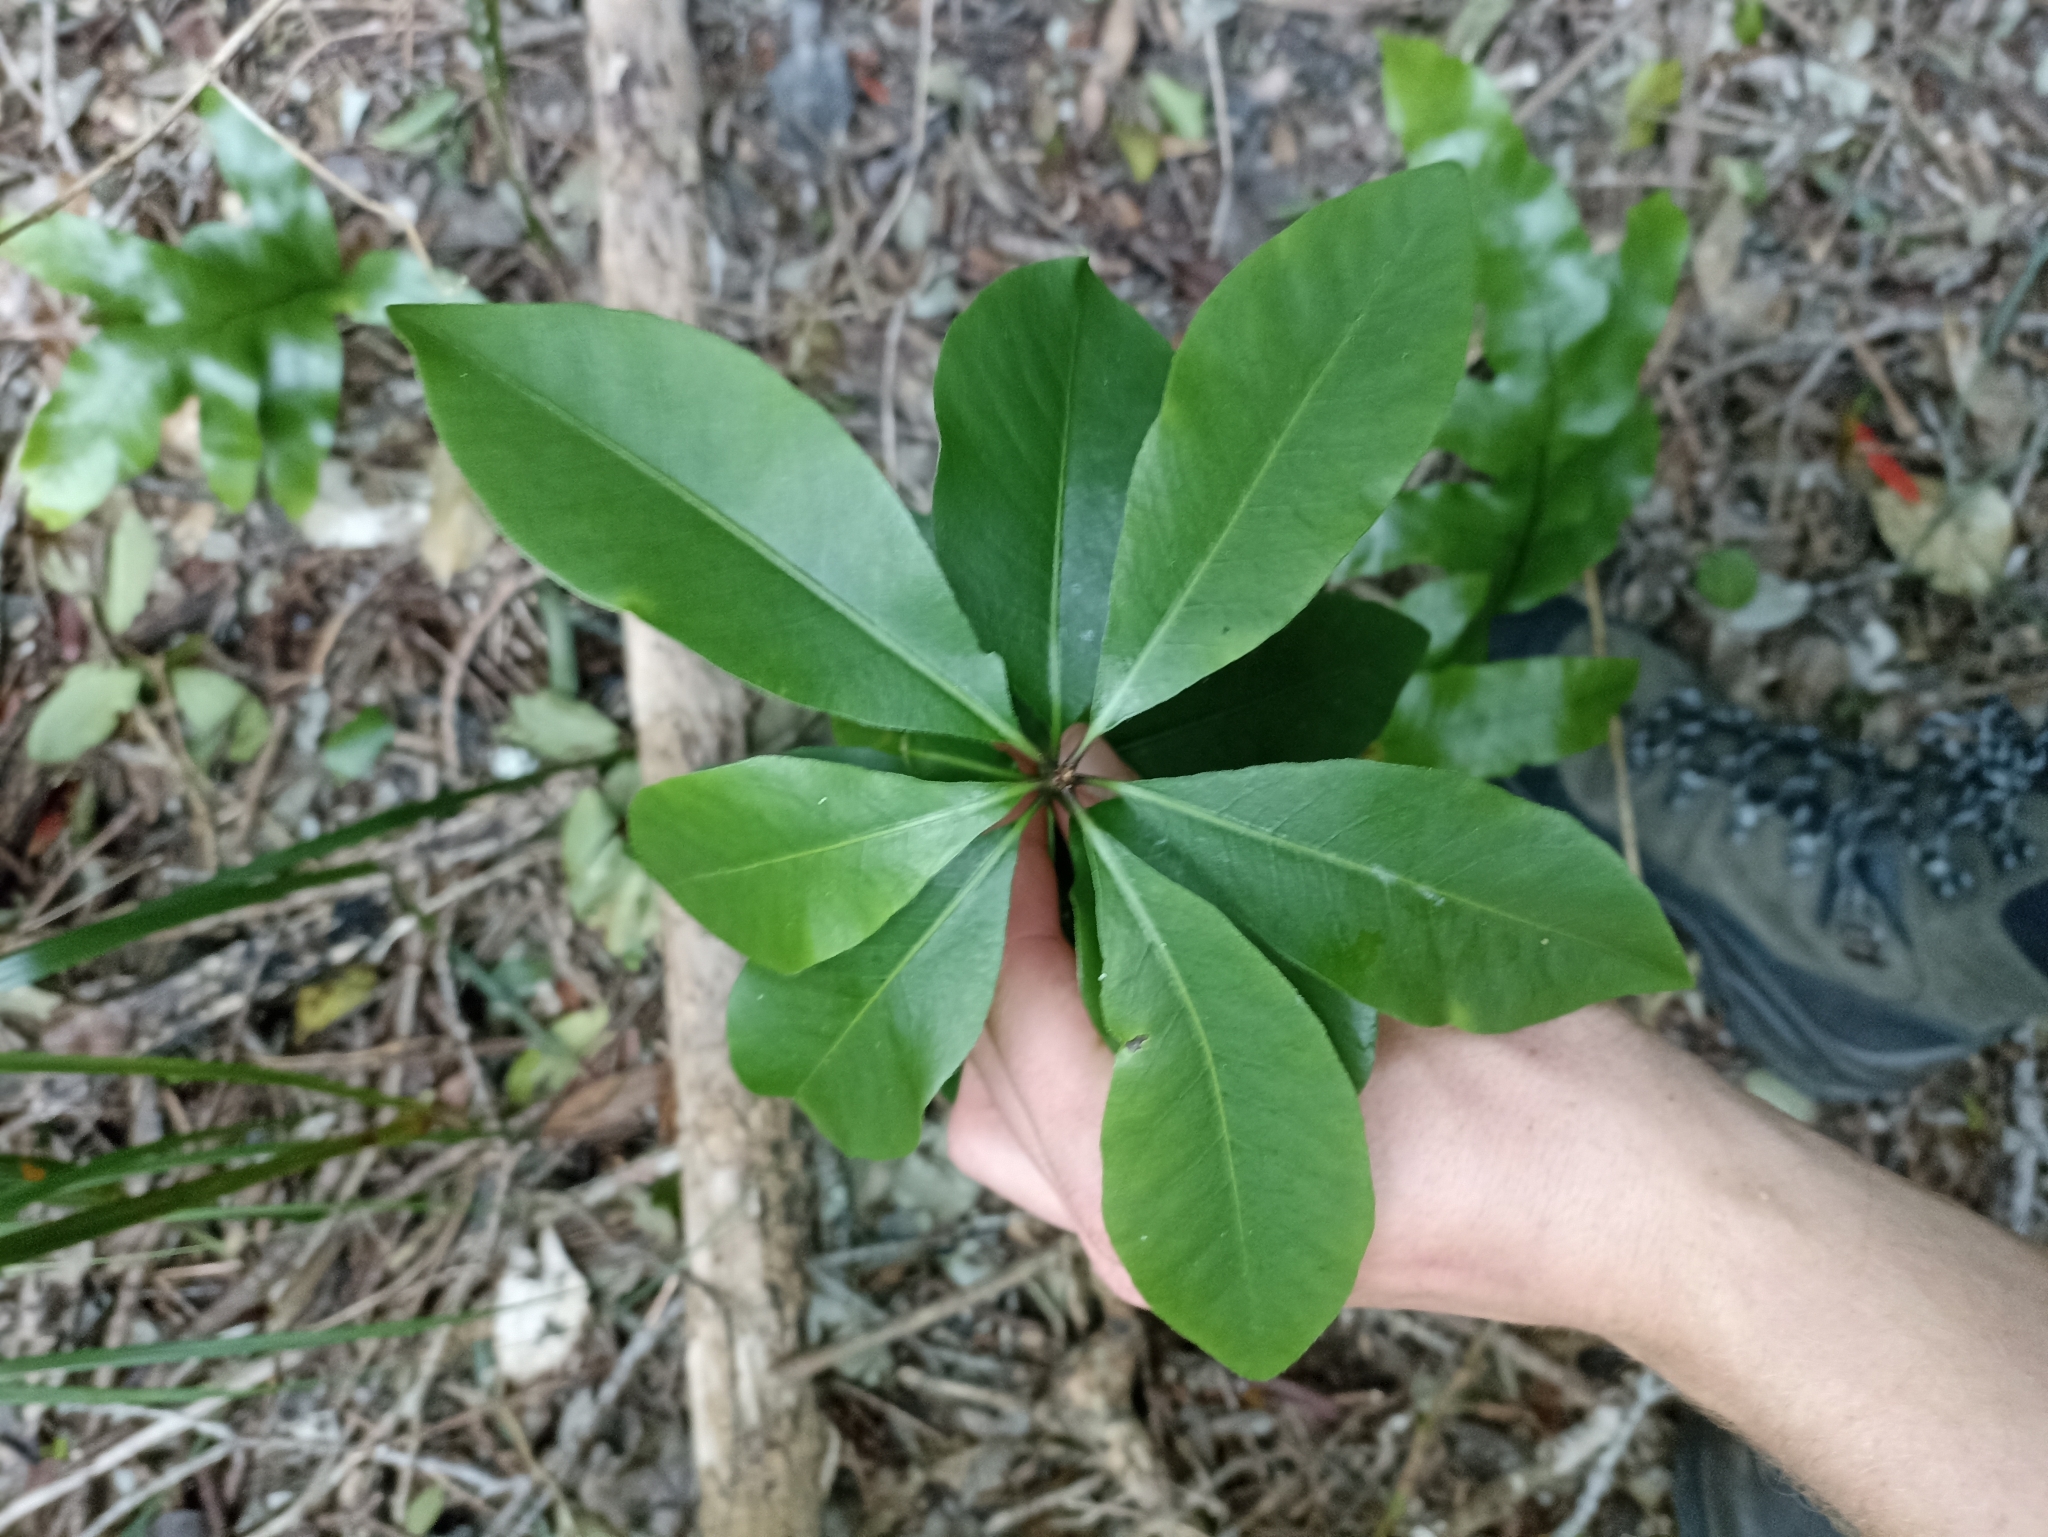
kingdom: Plantae
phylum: Tracheophyta
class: Magnoliopsida
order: Apiales
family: Pittosporaceae
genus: Pittosporum
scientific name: Pittosporum umbellatum
